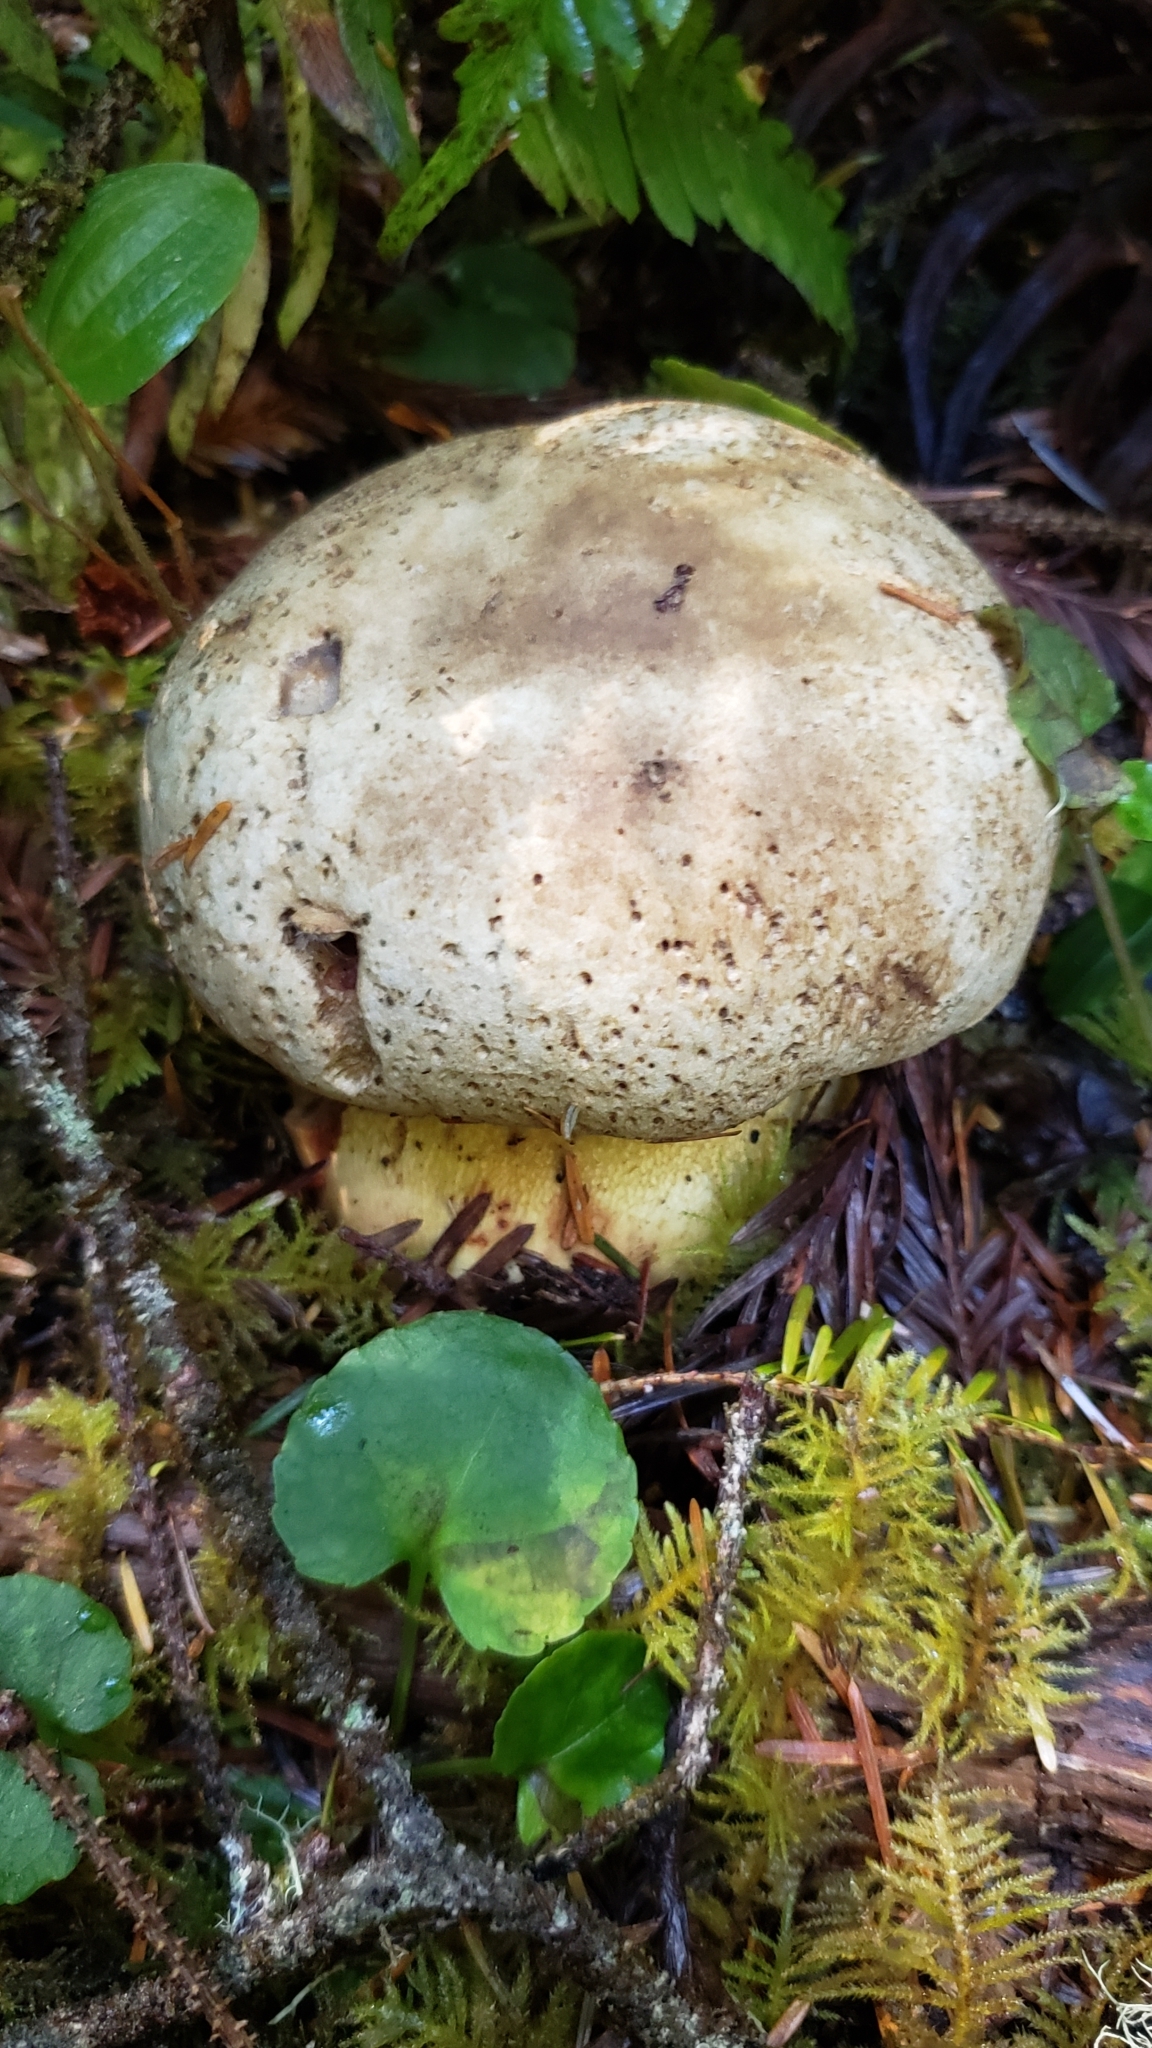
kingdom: Fungi
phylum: Basidiomycota
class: Agaricomycetes
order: Boletales
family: Boletaceae
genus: Caloboletus
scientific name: Caloboletus rubripes
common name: Red-footed bitter bolete
